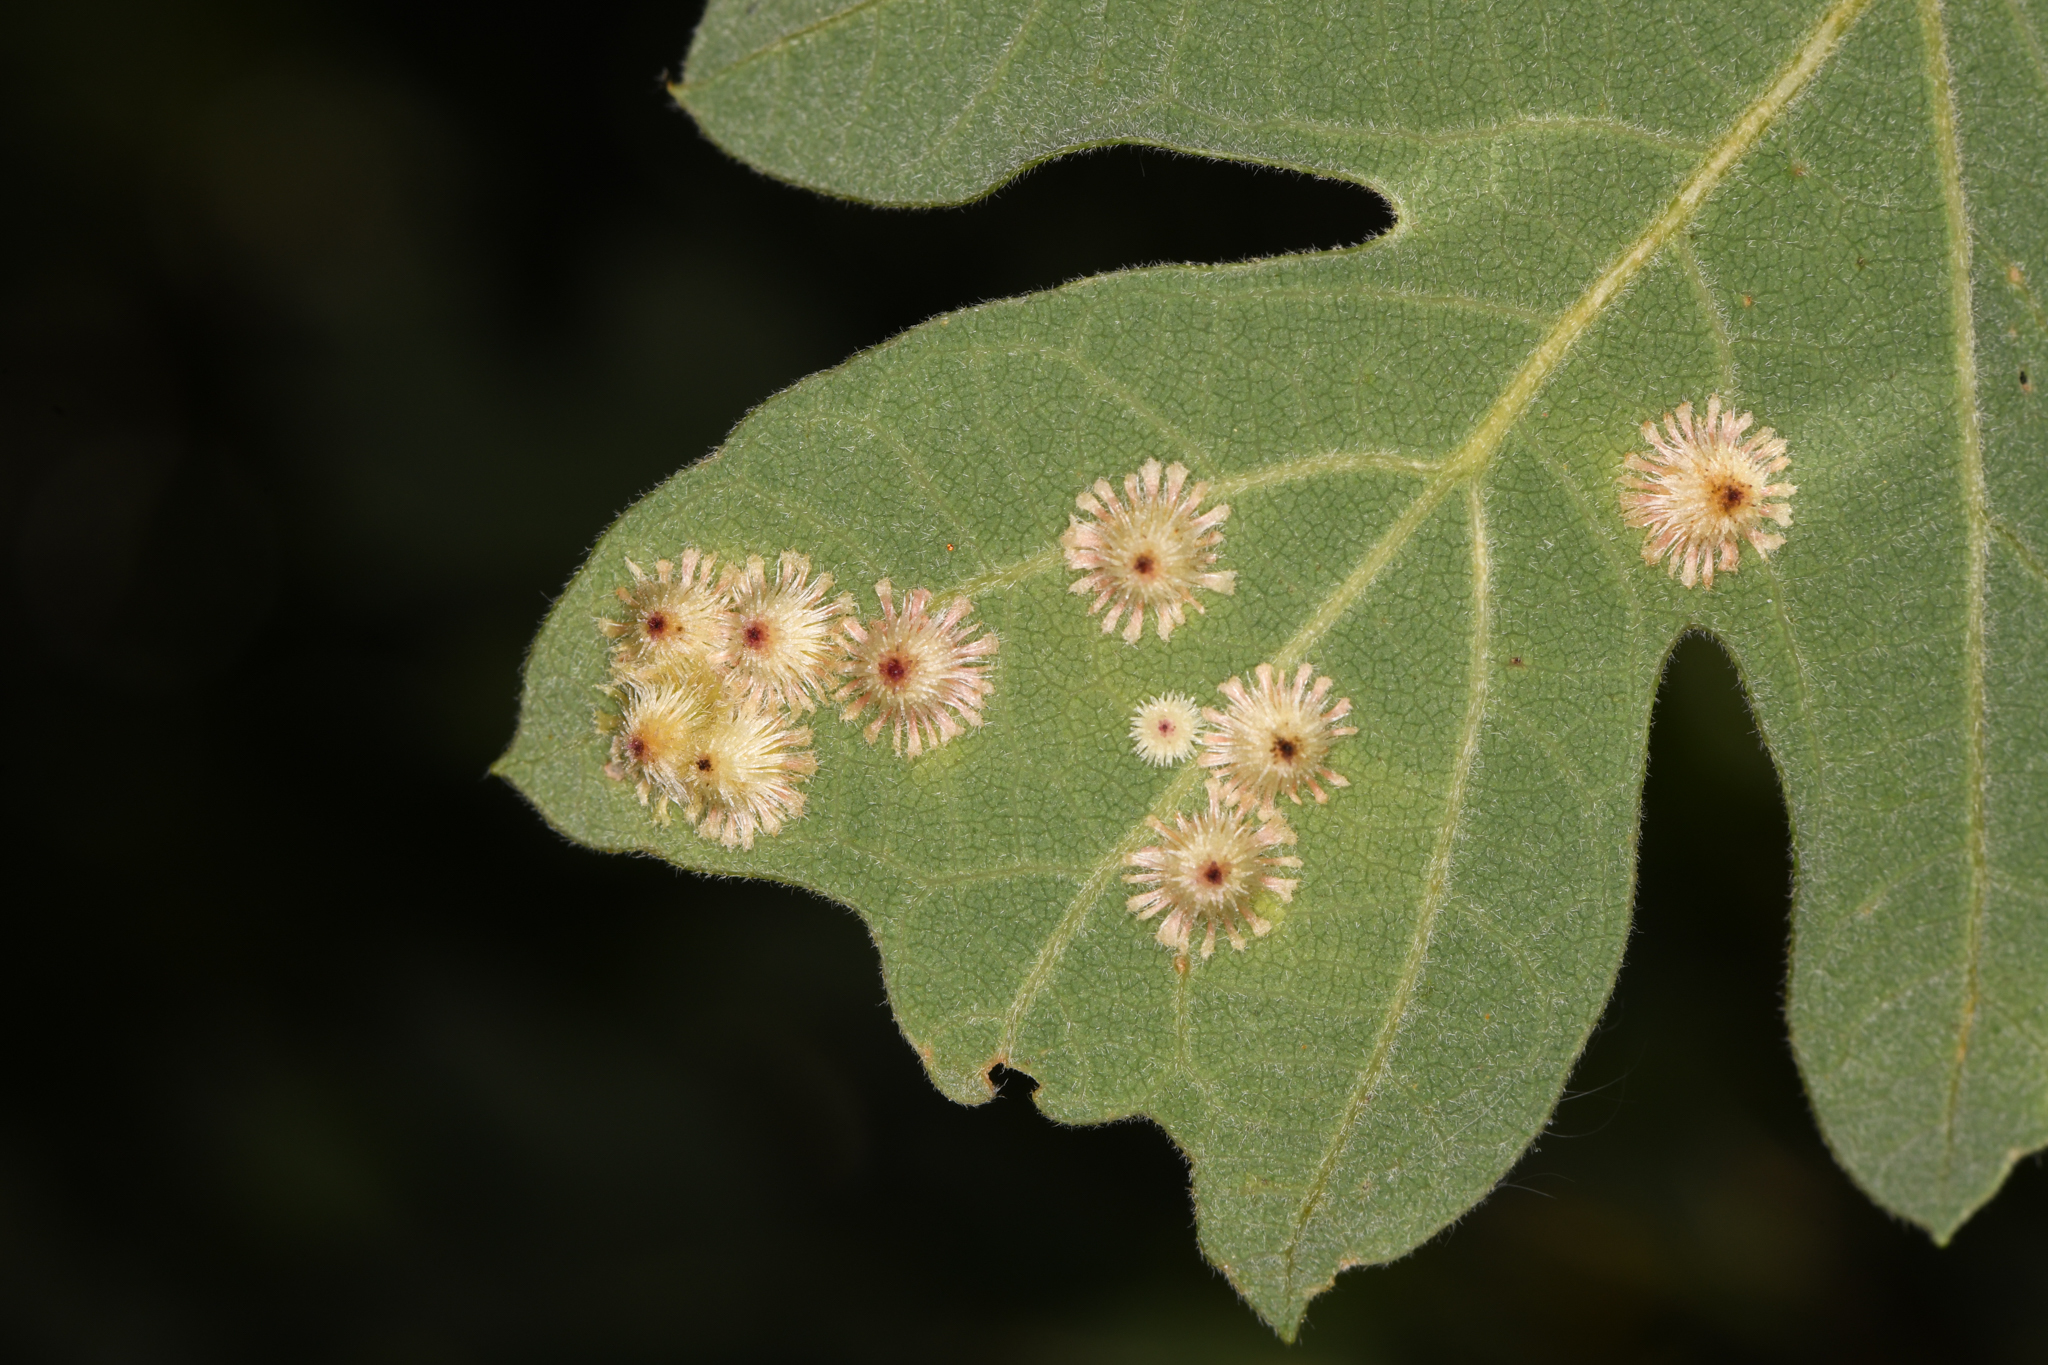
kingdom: Animalia
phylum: Arthropoda
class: Insecta
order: Hymenoptera
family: Cynipidae
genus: Andricus
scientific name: Andricus
